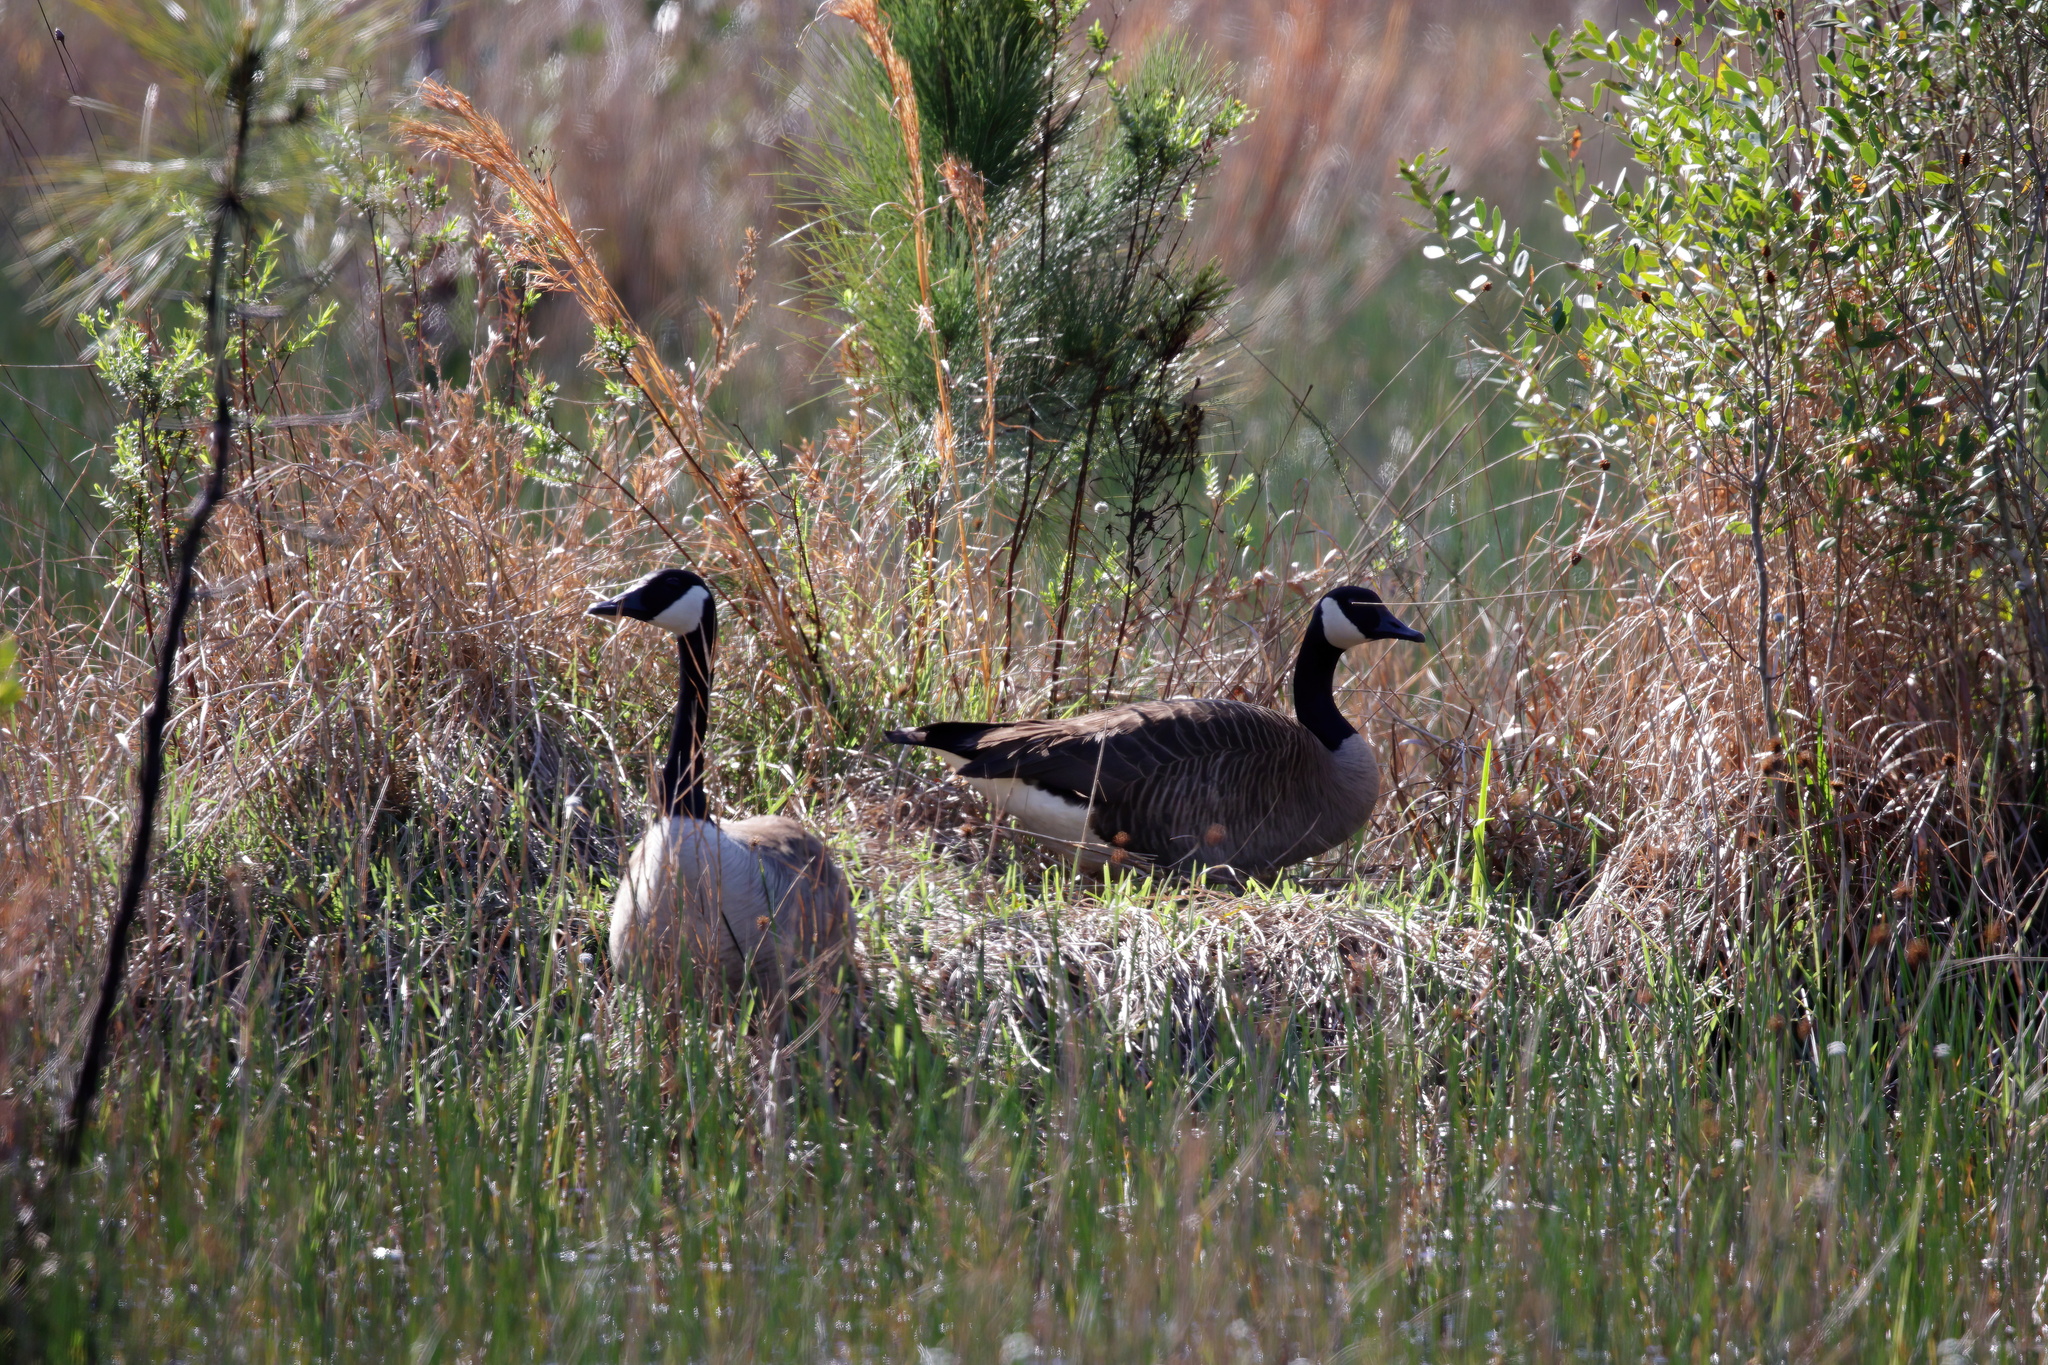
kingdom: Animalia
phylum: Chordata
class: Aves
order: Anseriformes
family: Anatidae
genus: Branta
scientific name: Branta canadensis
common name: Canada goose
